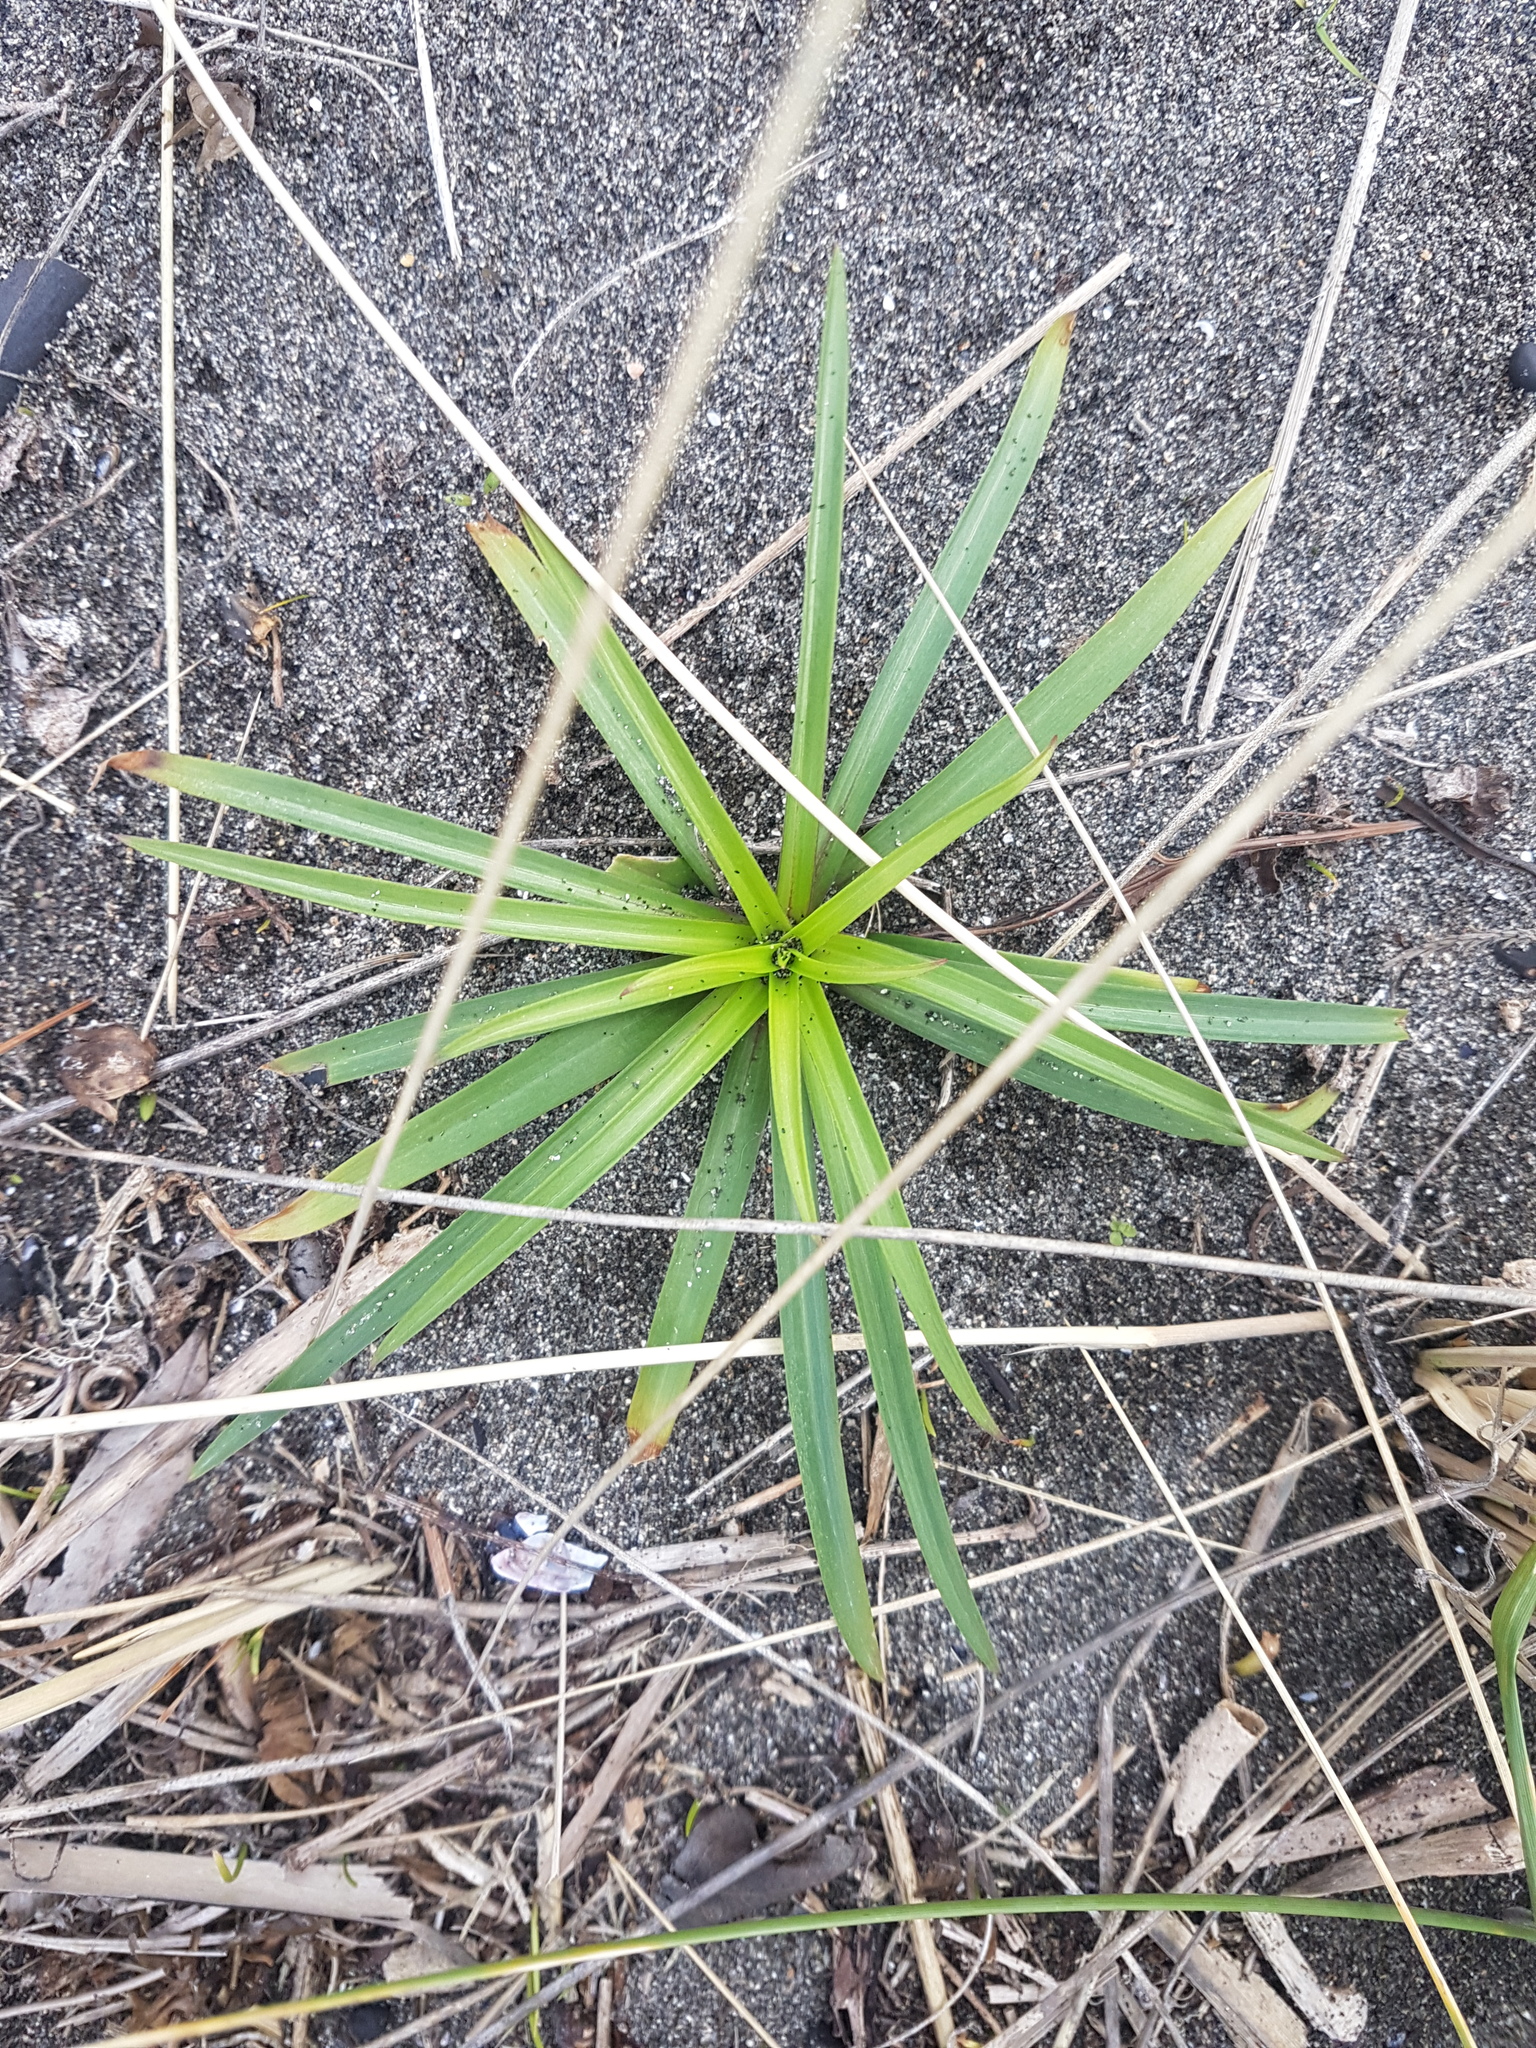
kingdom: Plantae
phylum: Tracheophyta
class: Liliopsida
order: Liliales
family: Liliaceae
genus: Lilium
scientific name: Lilium formosanum
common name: Formosa lily
